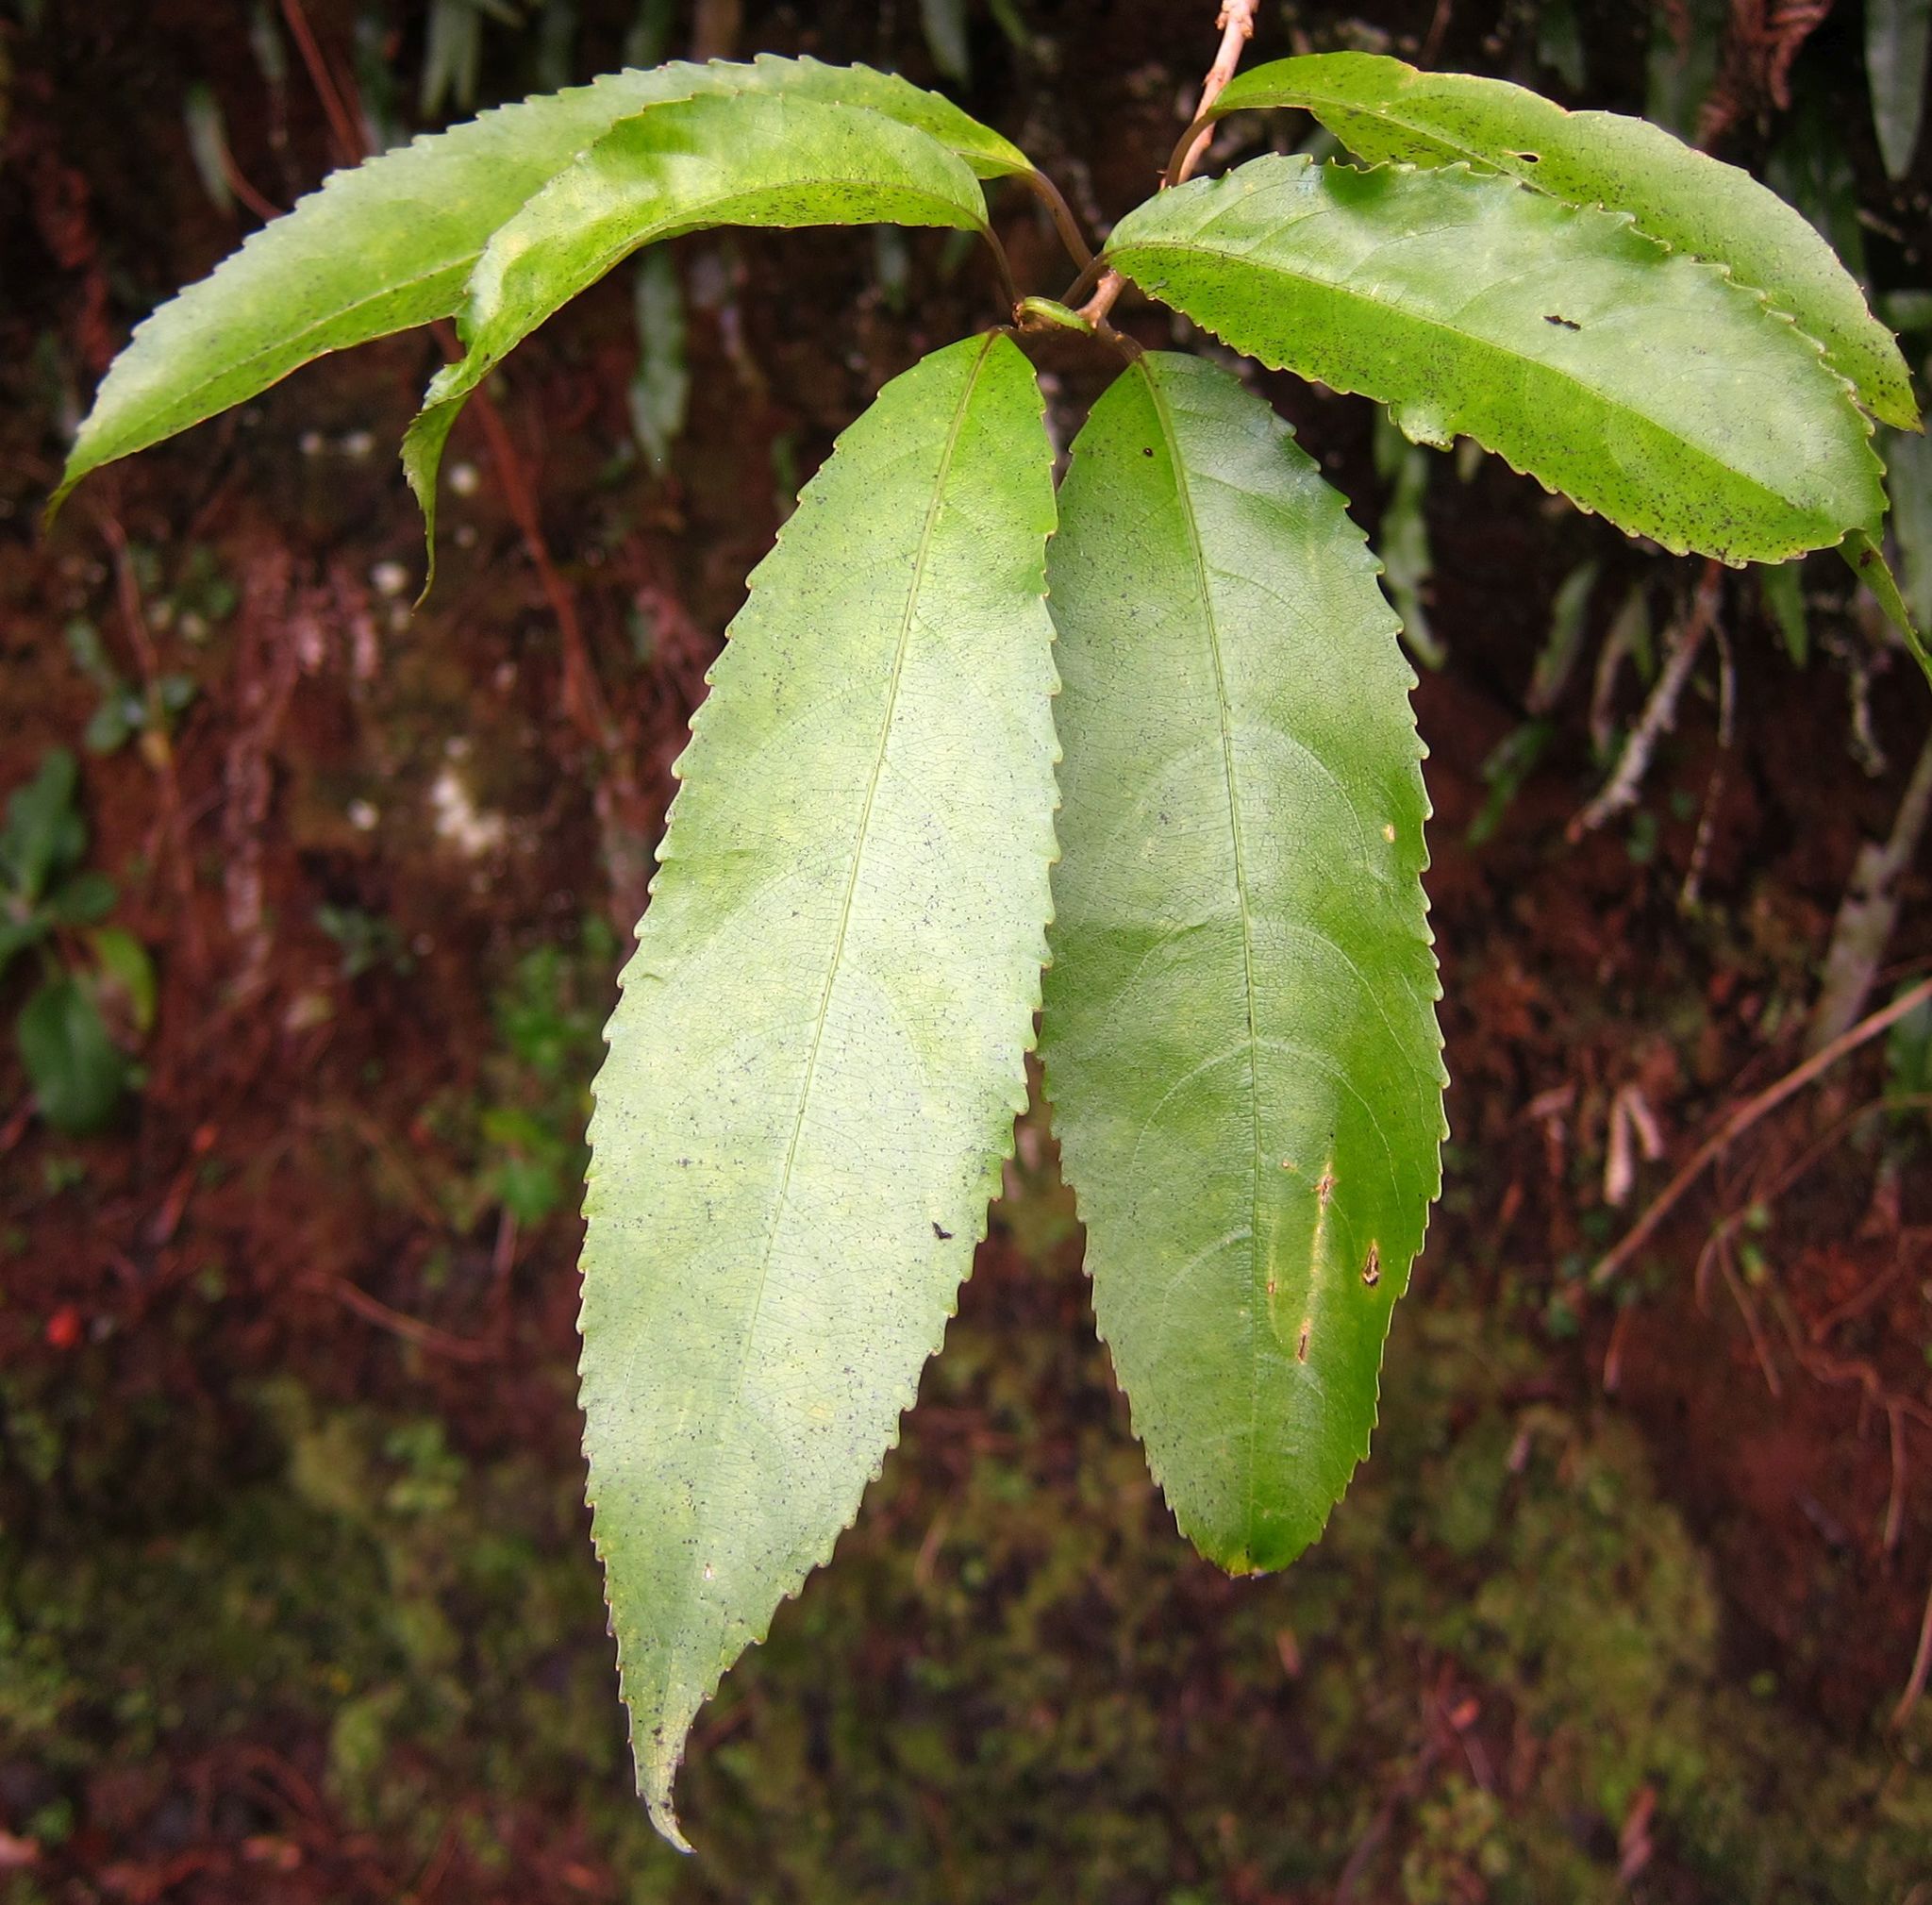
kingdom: Plantae
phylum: Tracheophyta
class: Magnoliopsida
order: Malpighiales
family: Violaceae
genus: Melicytus
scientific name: Melicytus ramiflorus
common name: Mahoe
